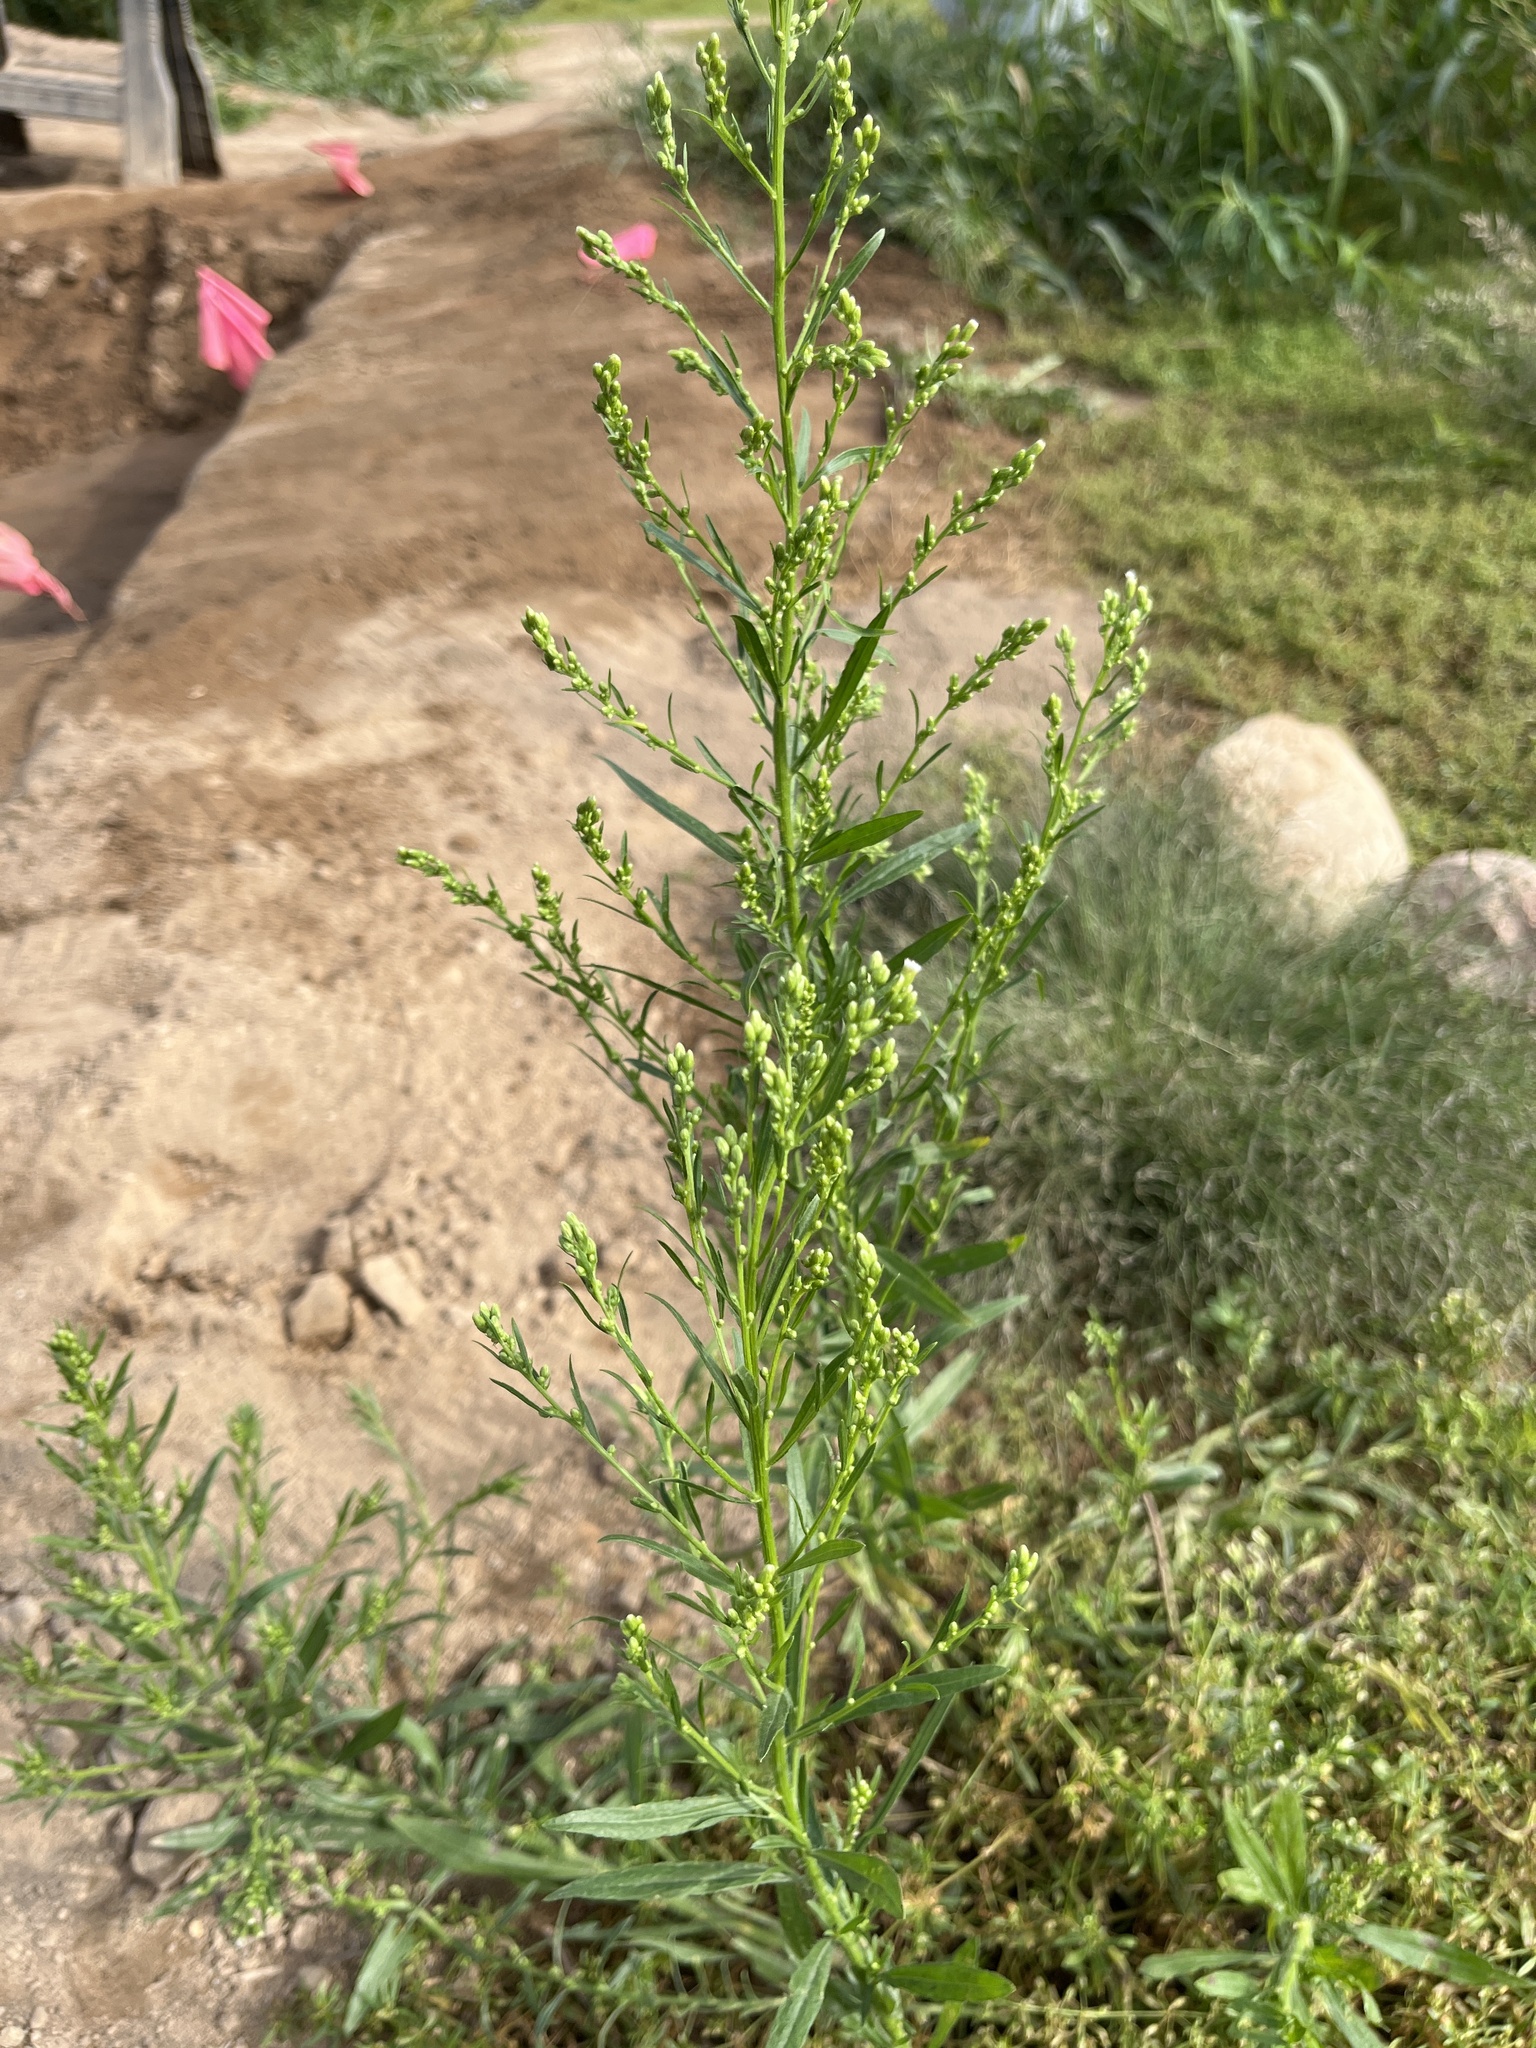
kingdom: Plantae
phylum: Tracheophyta
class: Magnoliopsida
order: Asterales
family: Asteraceae
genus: Erigeron
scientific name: Erigeron canadensis
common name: Canadian fleabane
